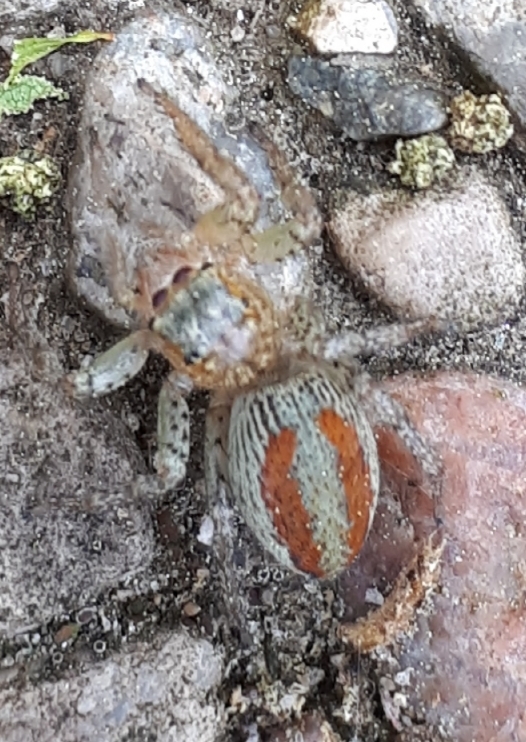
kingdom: Animalia
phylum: Arthropoda
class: Arachnida
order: Araneae
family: Salticidae
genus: Maevia
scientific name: Maevia inclemens
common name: Dimorphic jumper
